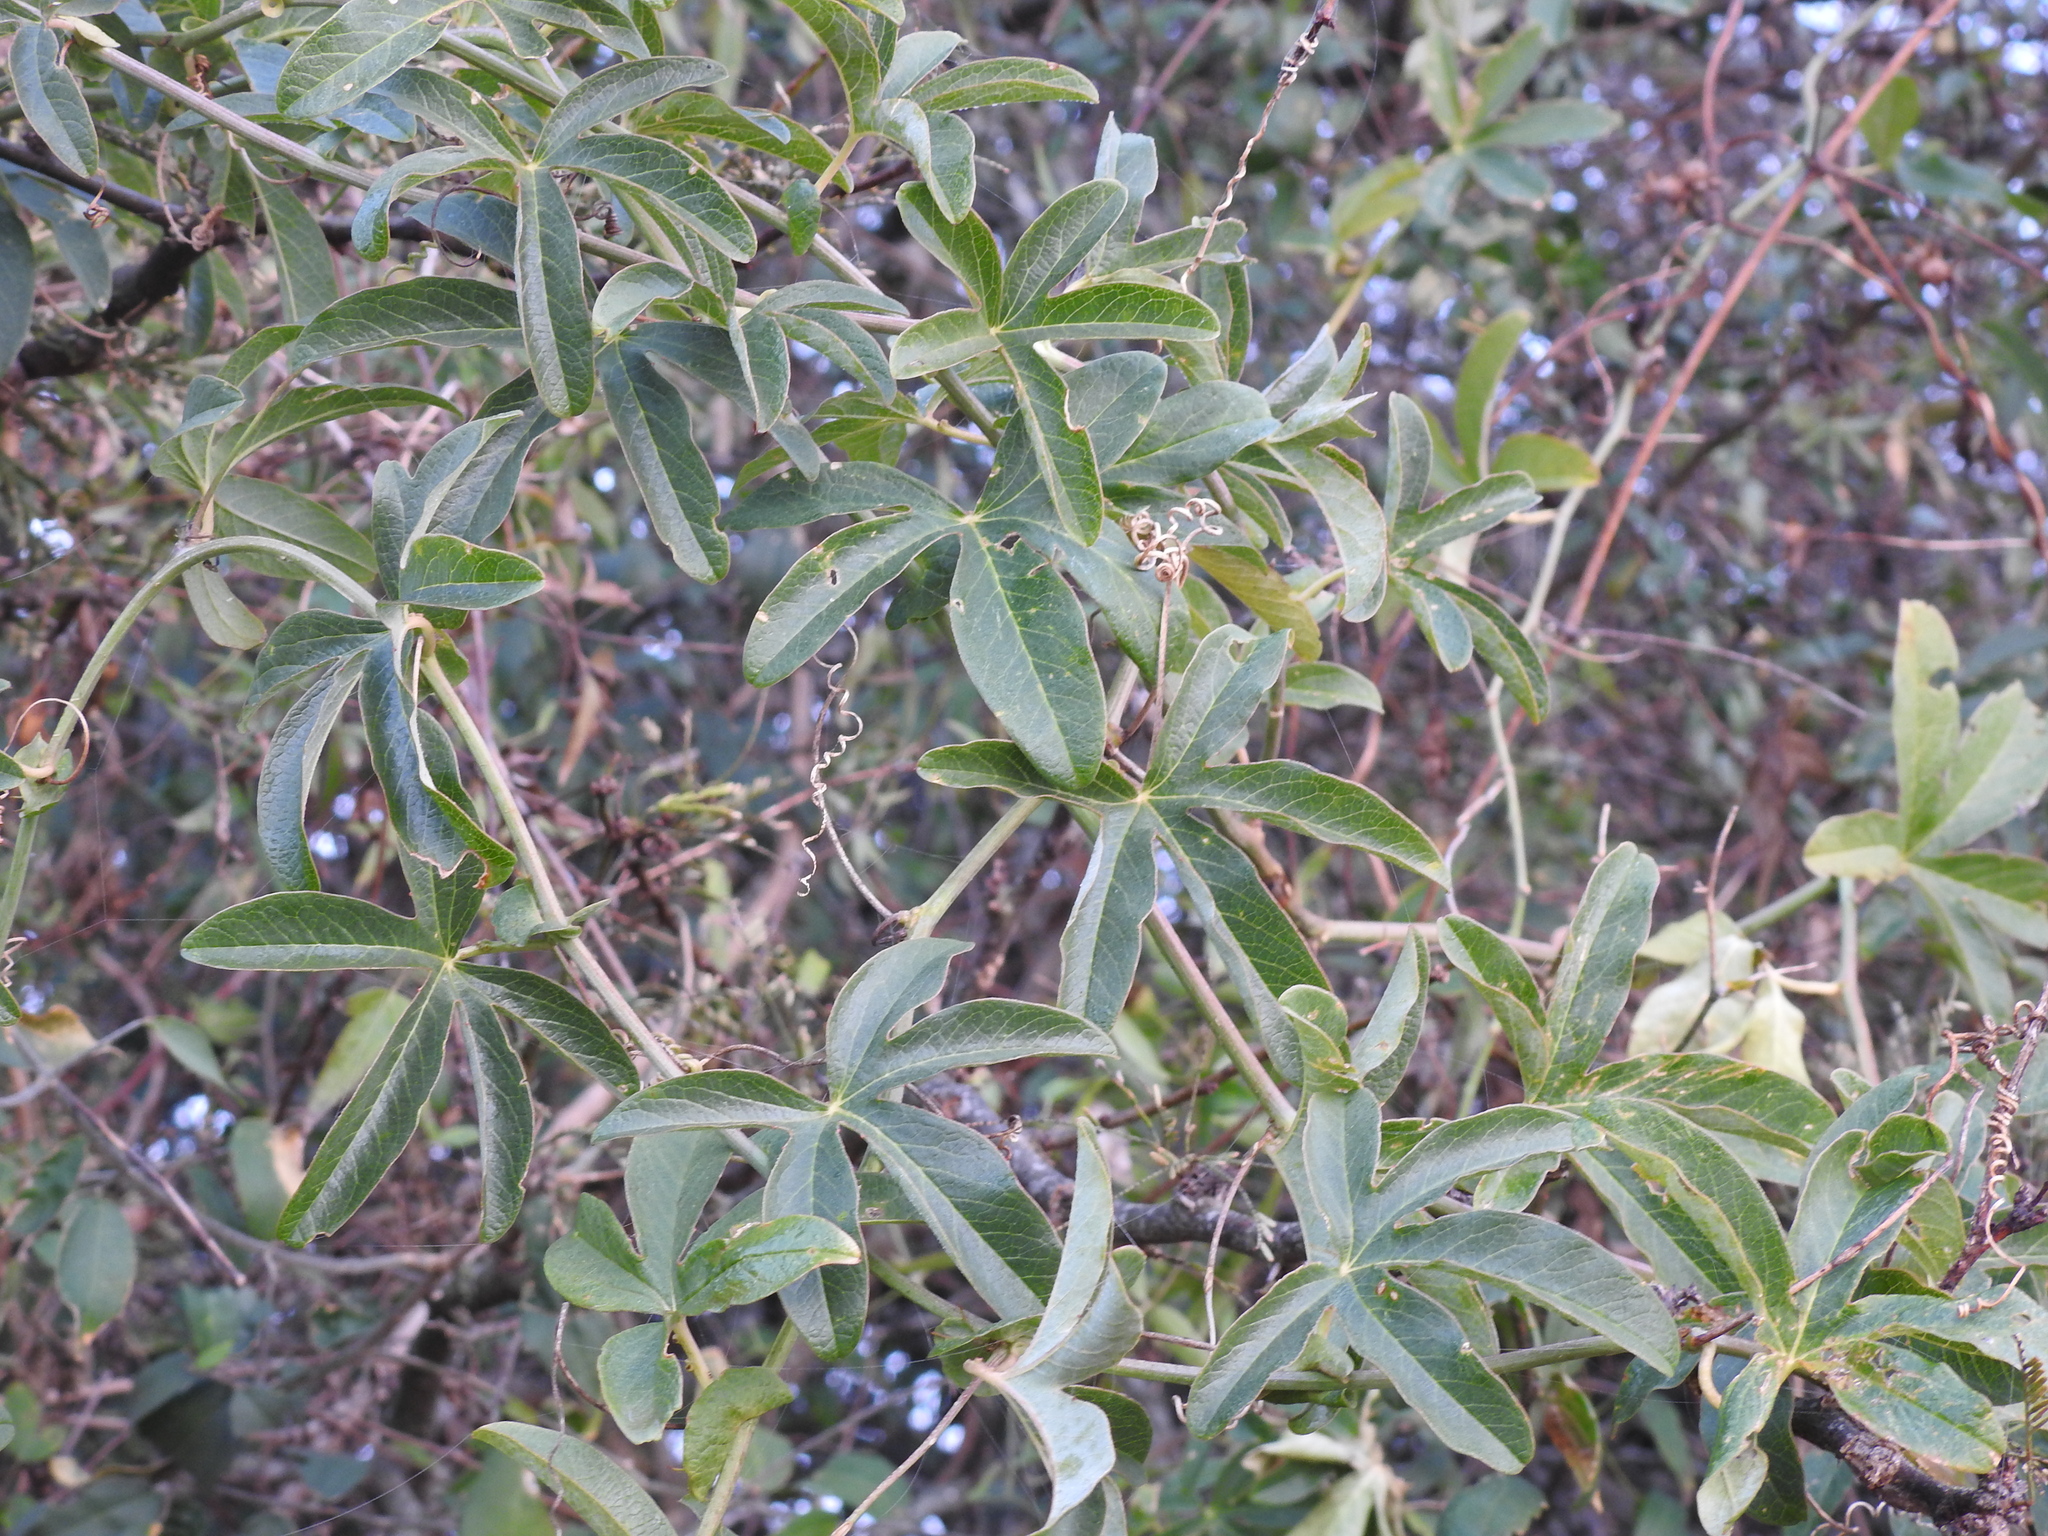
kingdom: Plantae
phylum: Tracheophyta
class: Magnoliopsida
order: Malpighiales
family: Passifloraceae
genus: Passiflora
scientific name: Passiflora caerulea
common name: Blue passionflower
